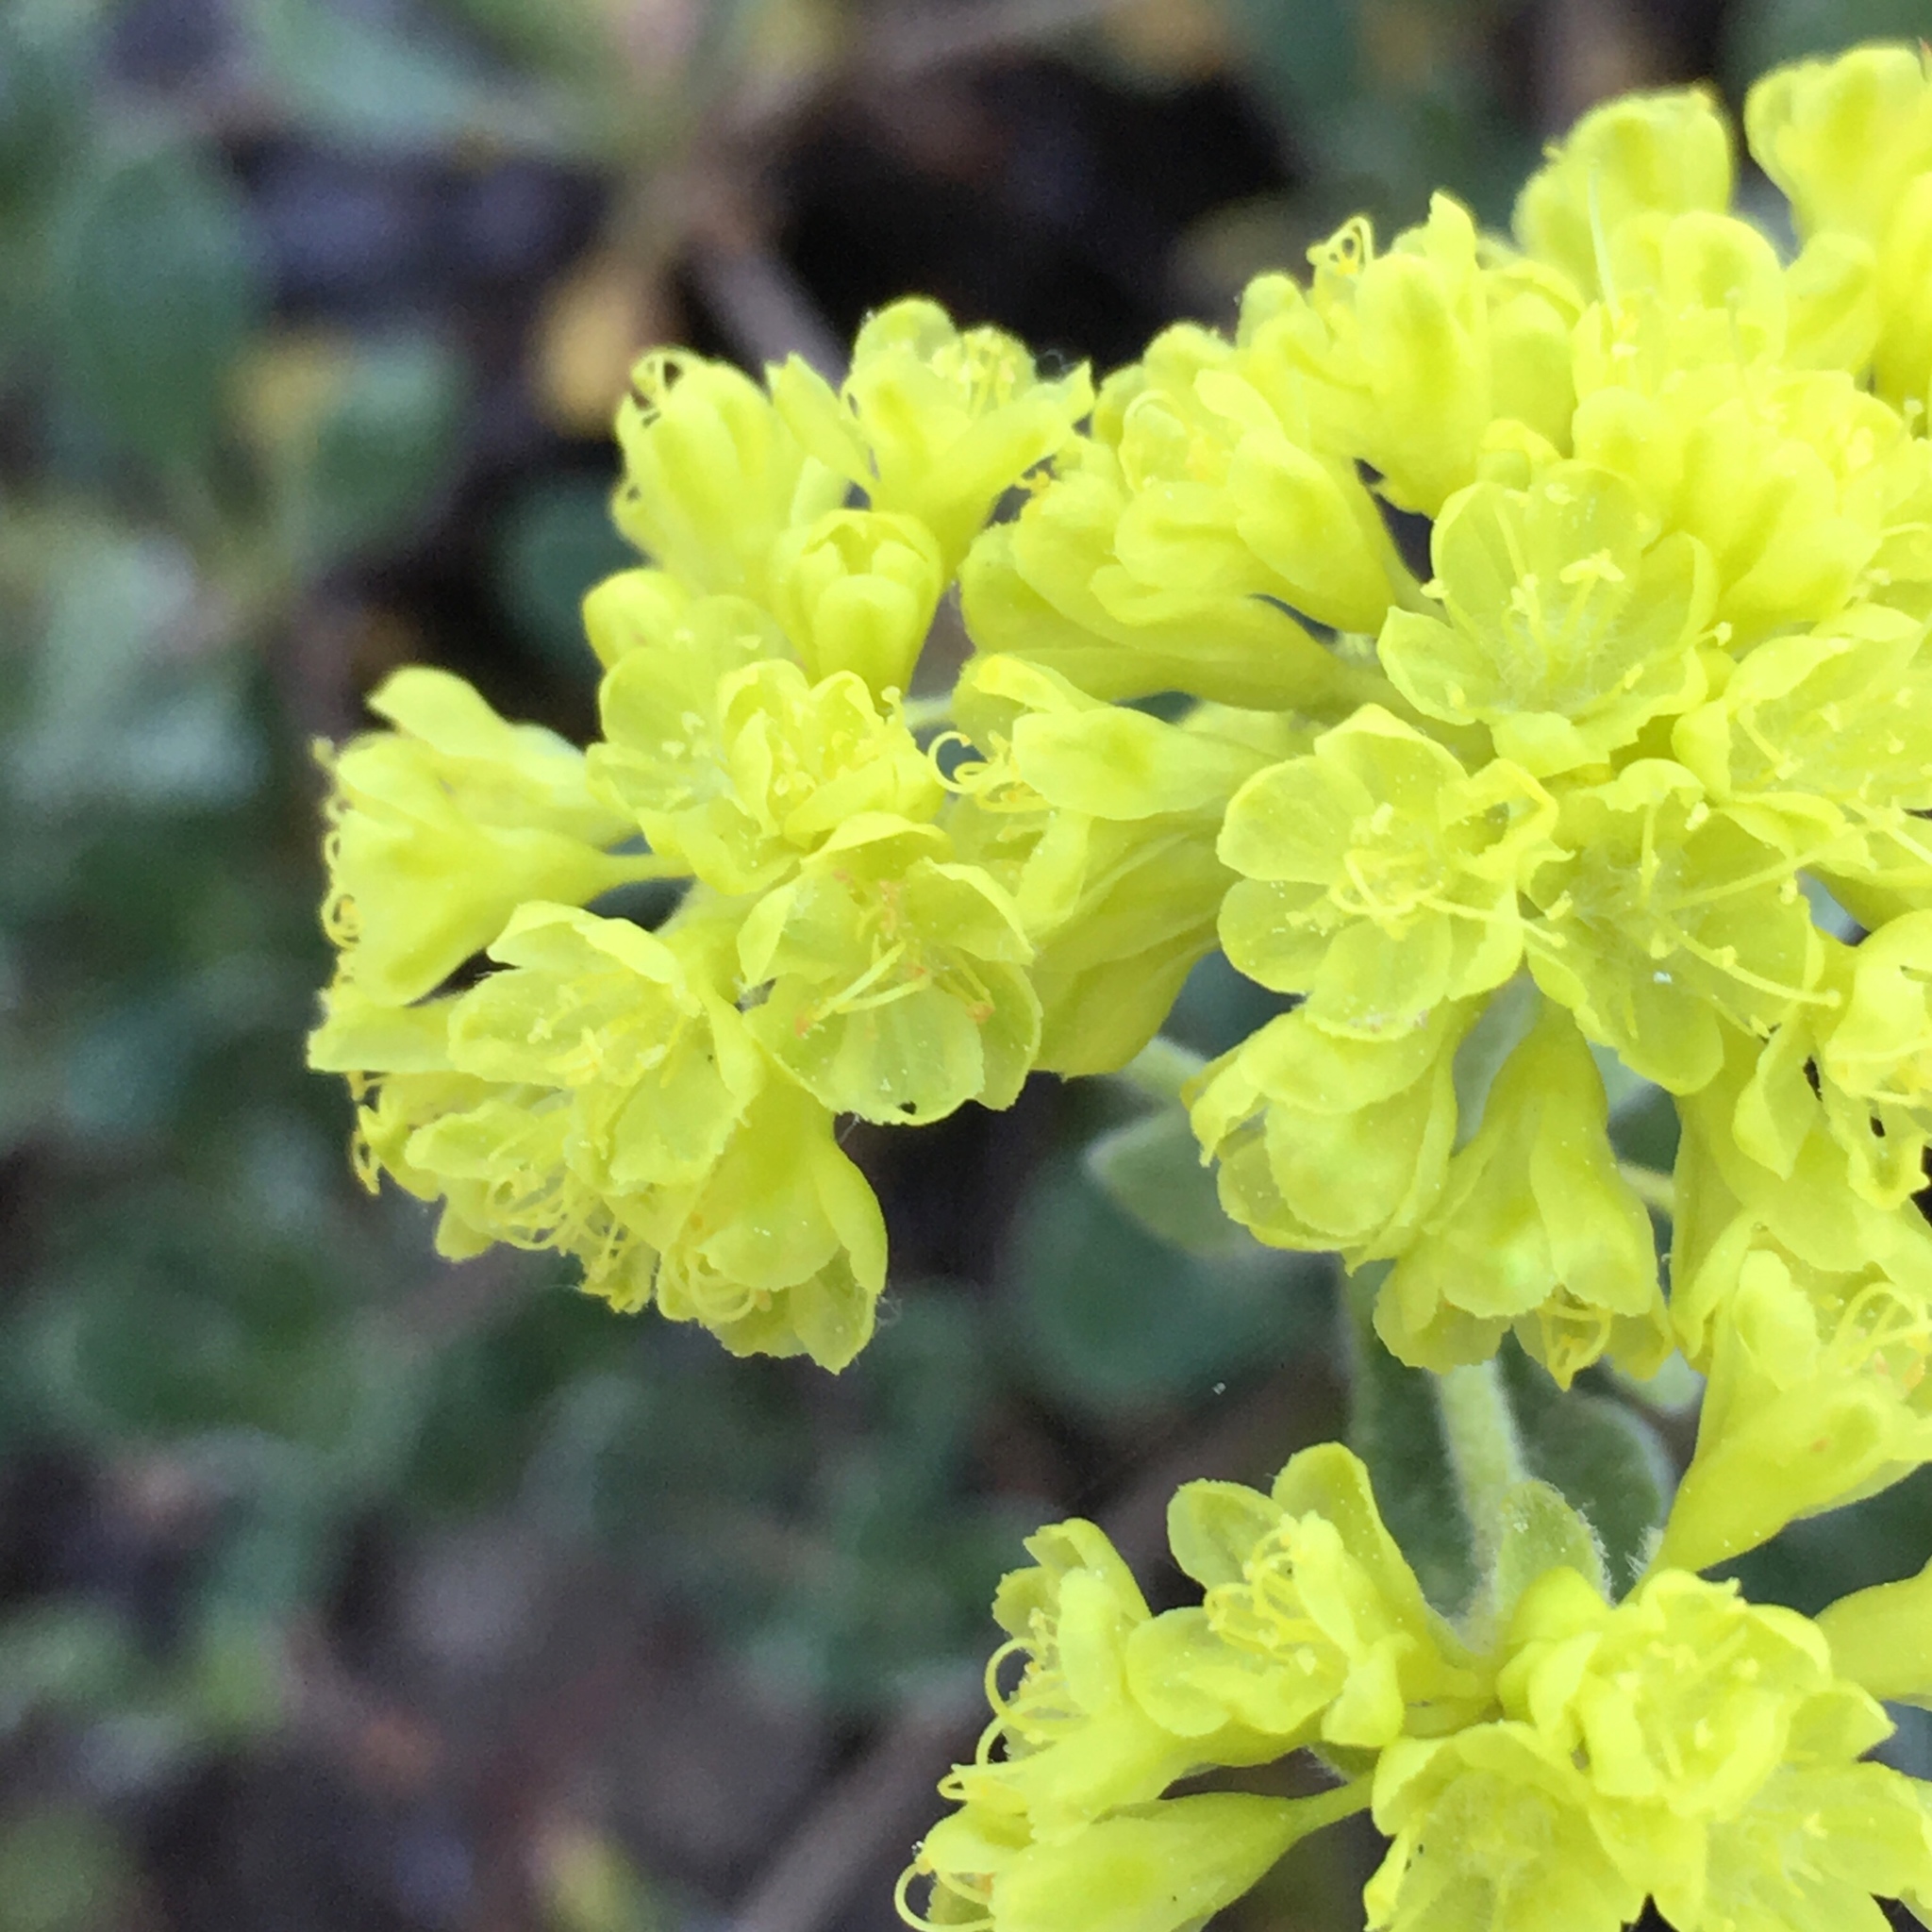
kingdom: Plantae
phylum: Tracheophyta
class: Magnoliopsida
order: Caryophyllales
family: Polygonaceae
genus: Eriogonum
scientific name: Eriogonum umbellatum
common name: Sulfur-buckwheat
